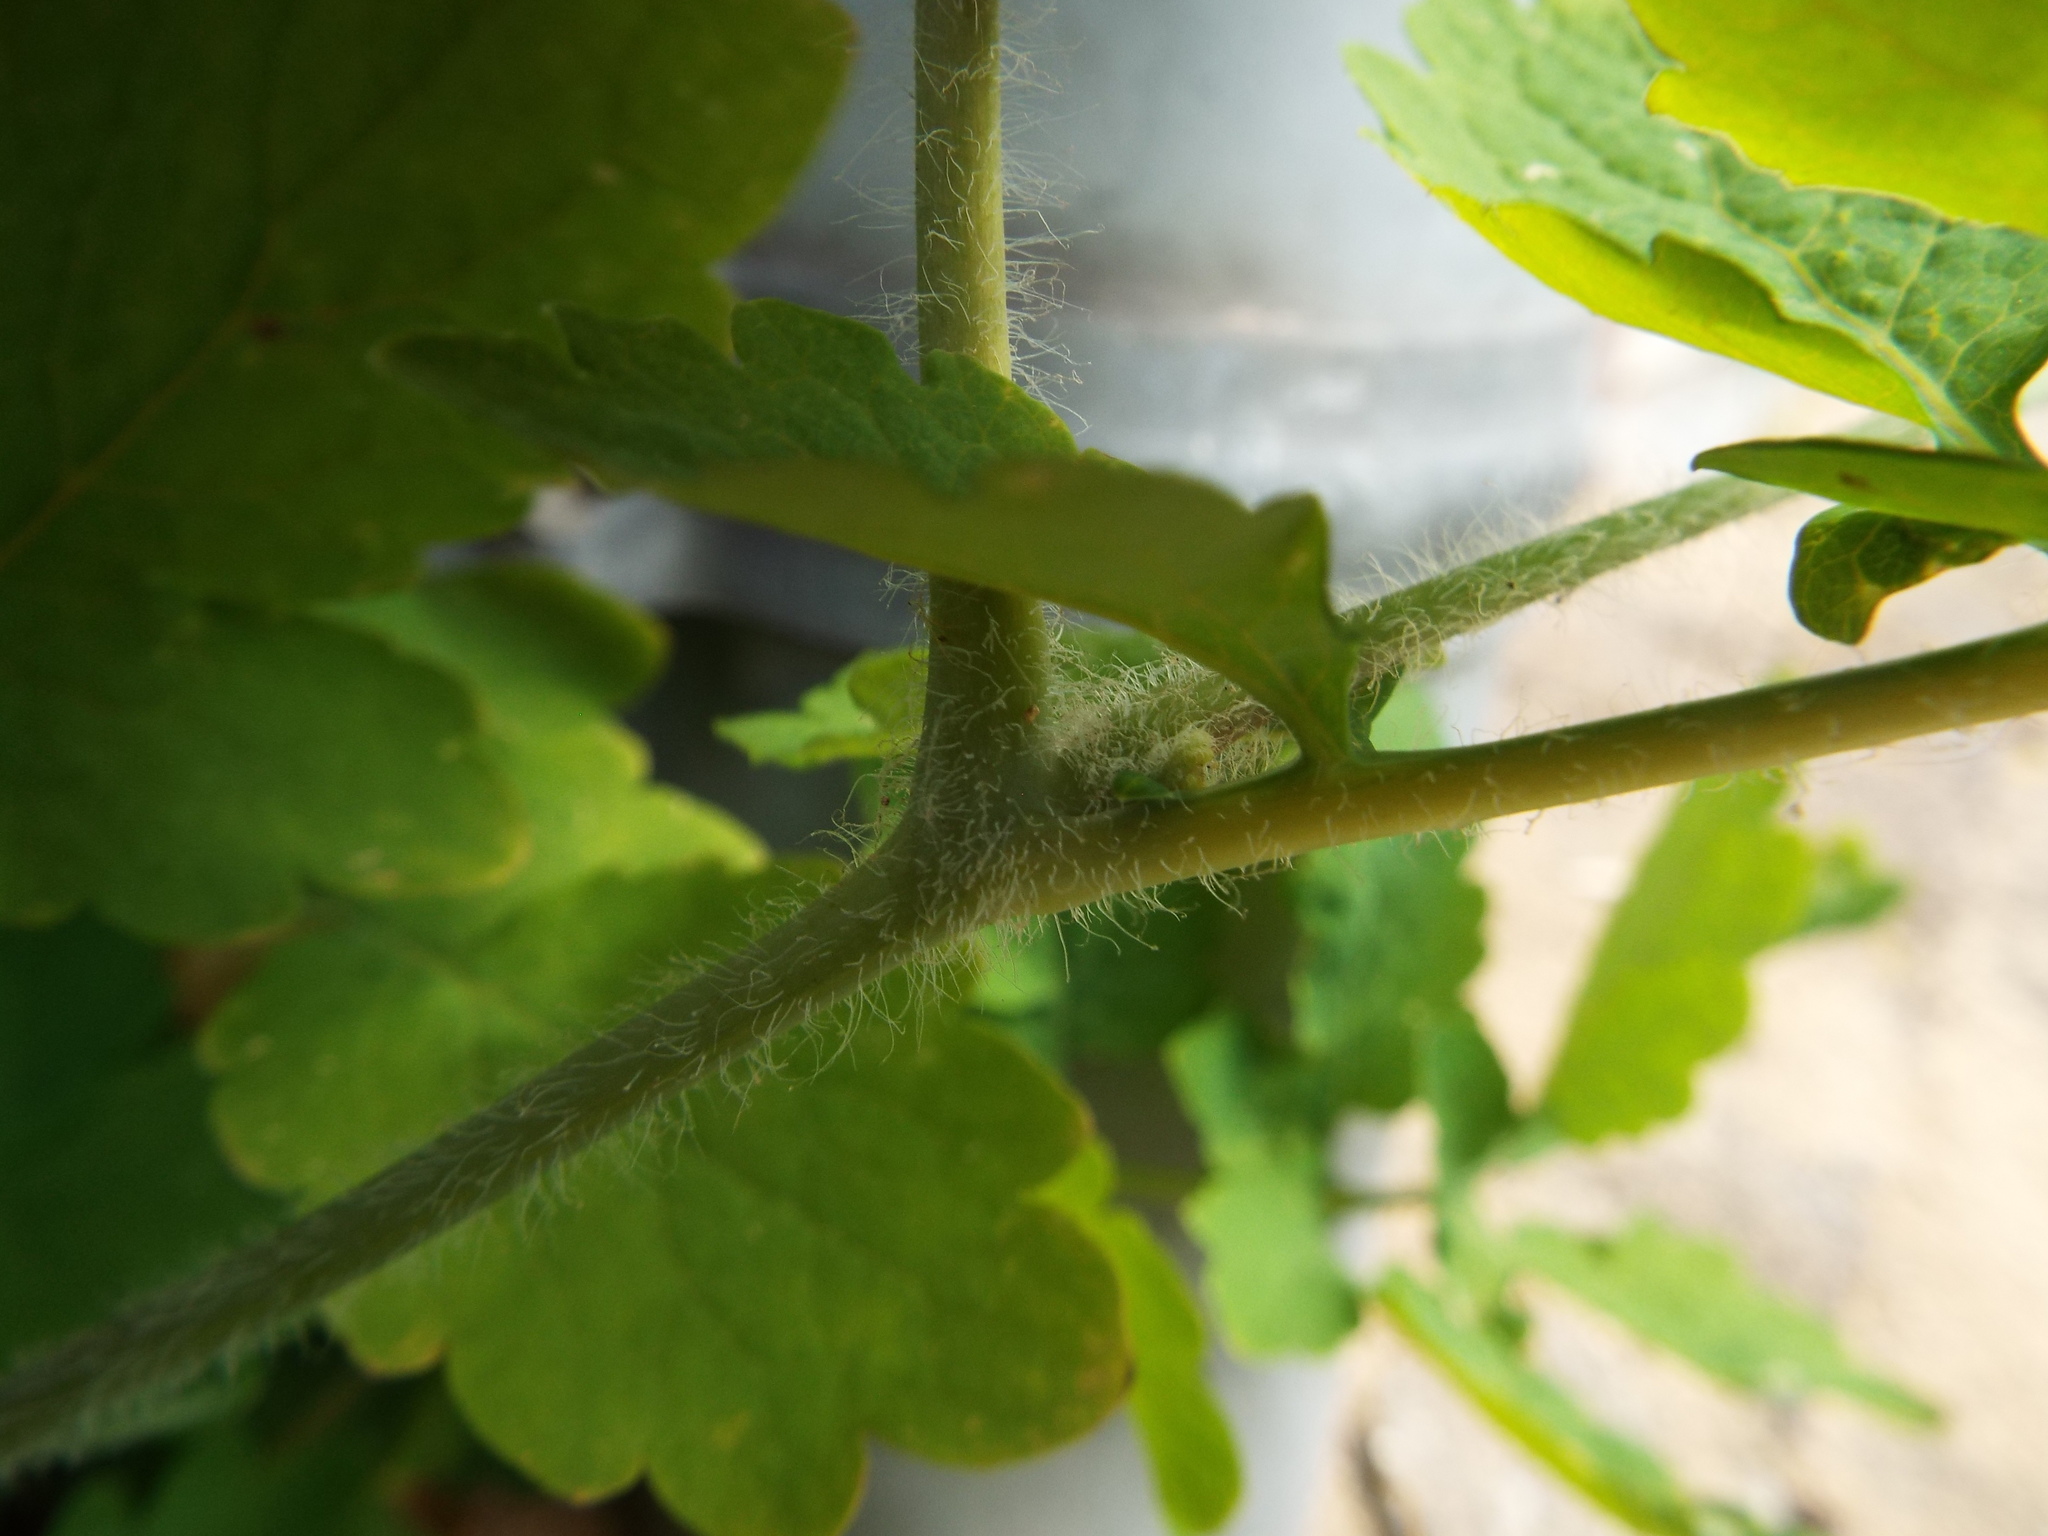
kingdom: Plantae
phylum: Tracheophyta
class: Magnoliopsida
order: Ranunculales
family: Papaveraceae
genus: Chelidonium
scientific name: Chelidonium majus
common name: Greater celandine
